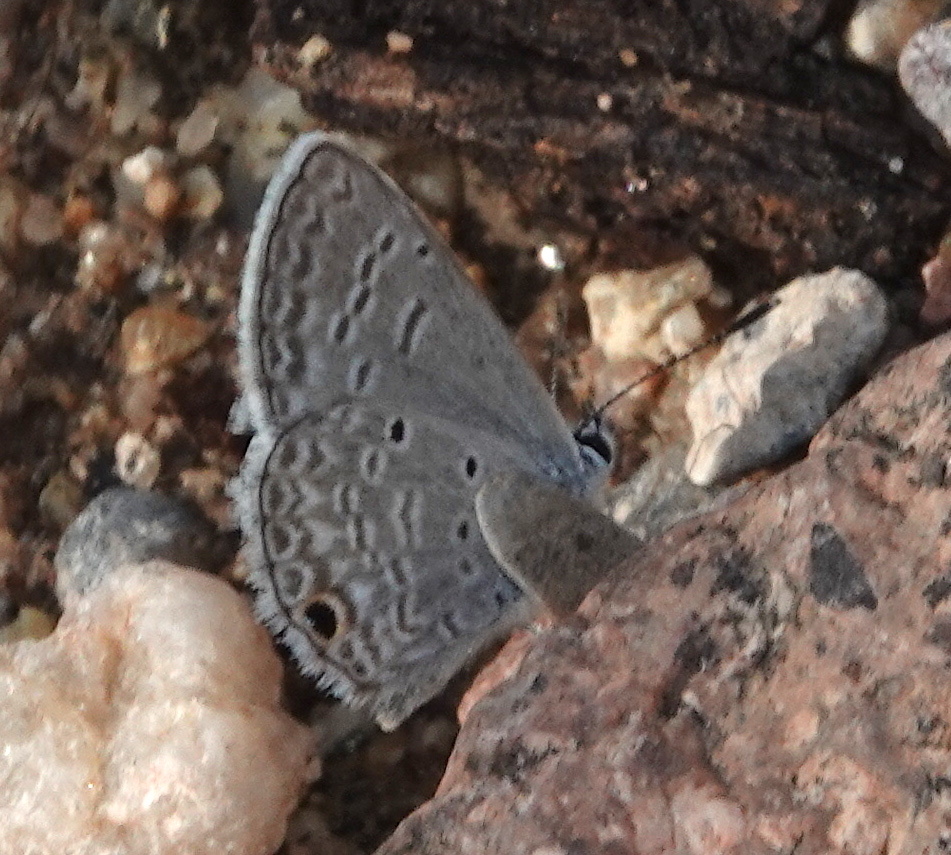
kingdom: Animalia
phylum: Arthropoda
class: Insecta
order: Lepidoptera
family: Lycaenidae
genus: Hemiargus
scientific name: Hemiargus ceraunus
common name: Ceraunus blue
